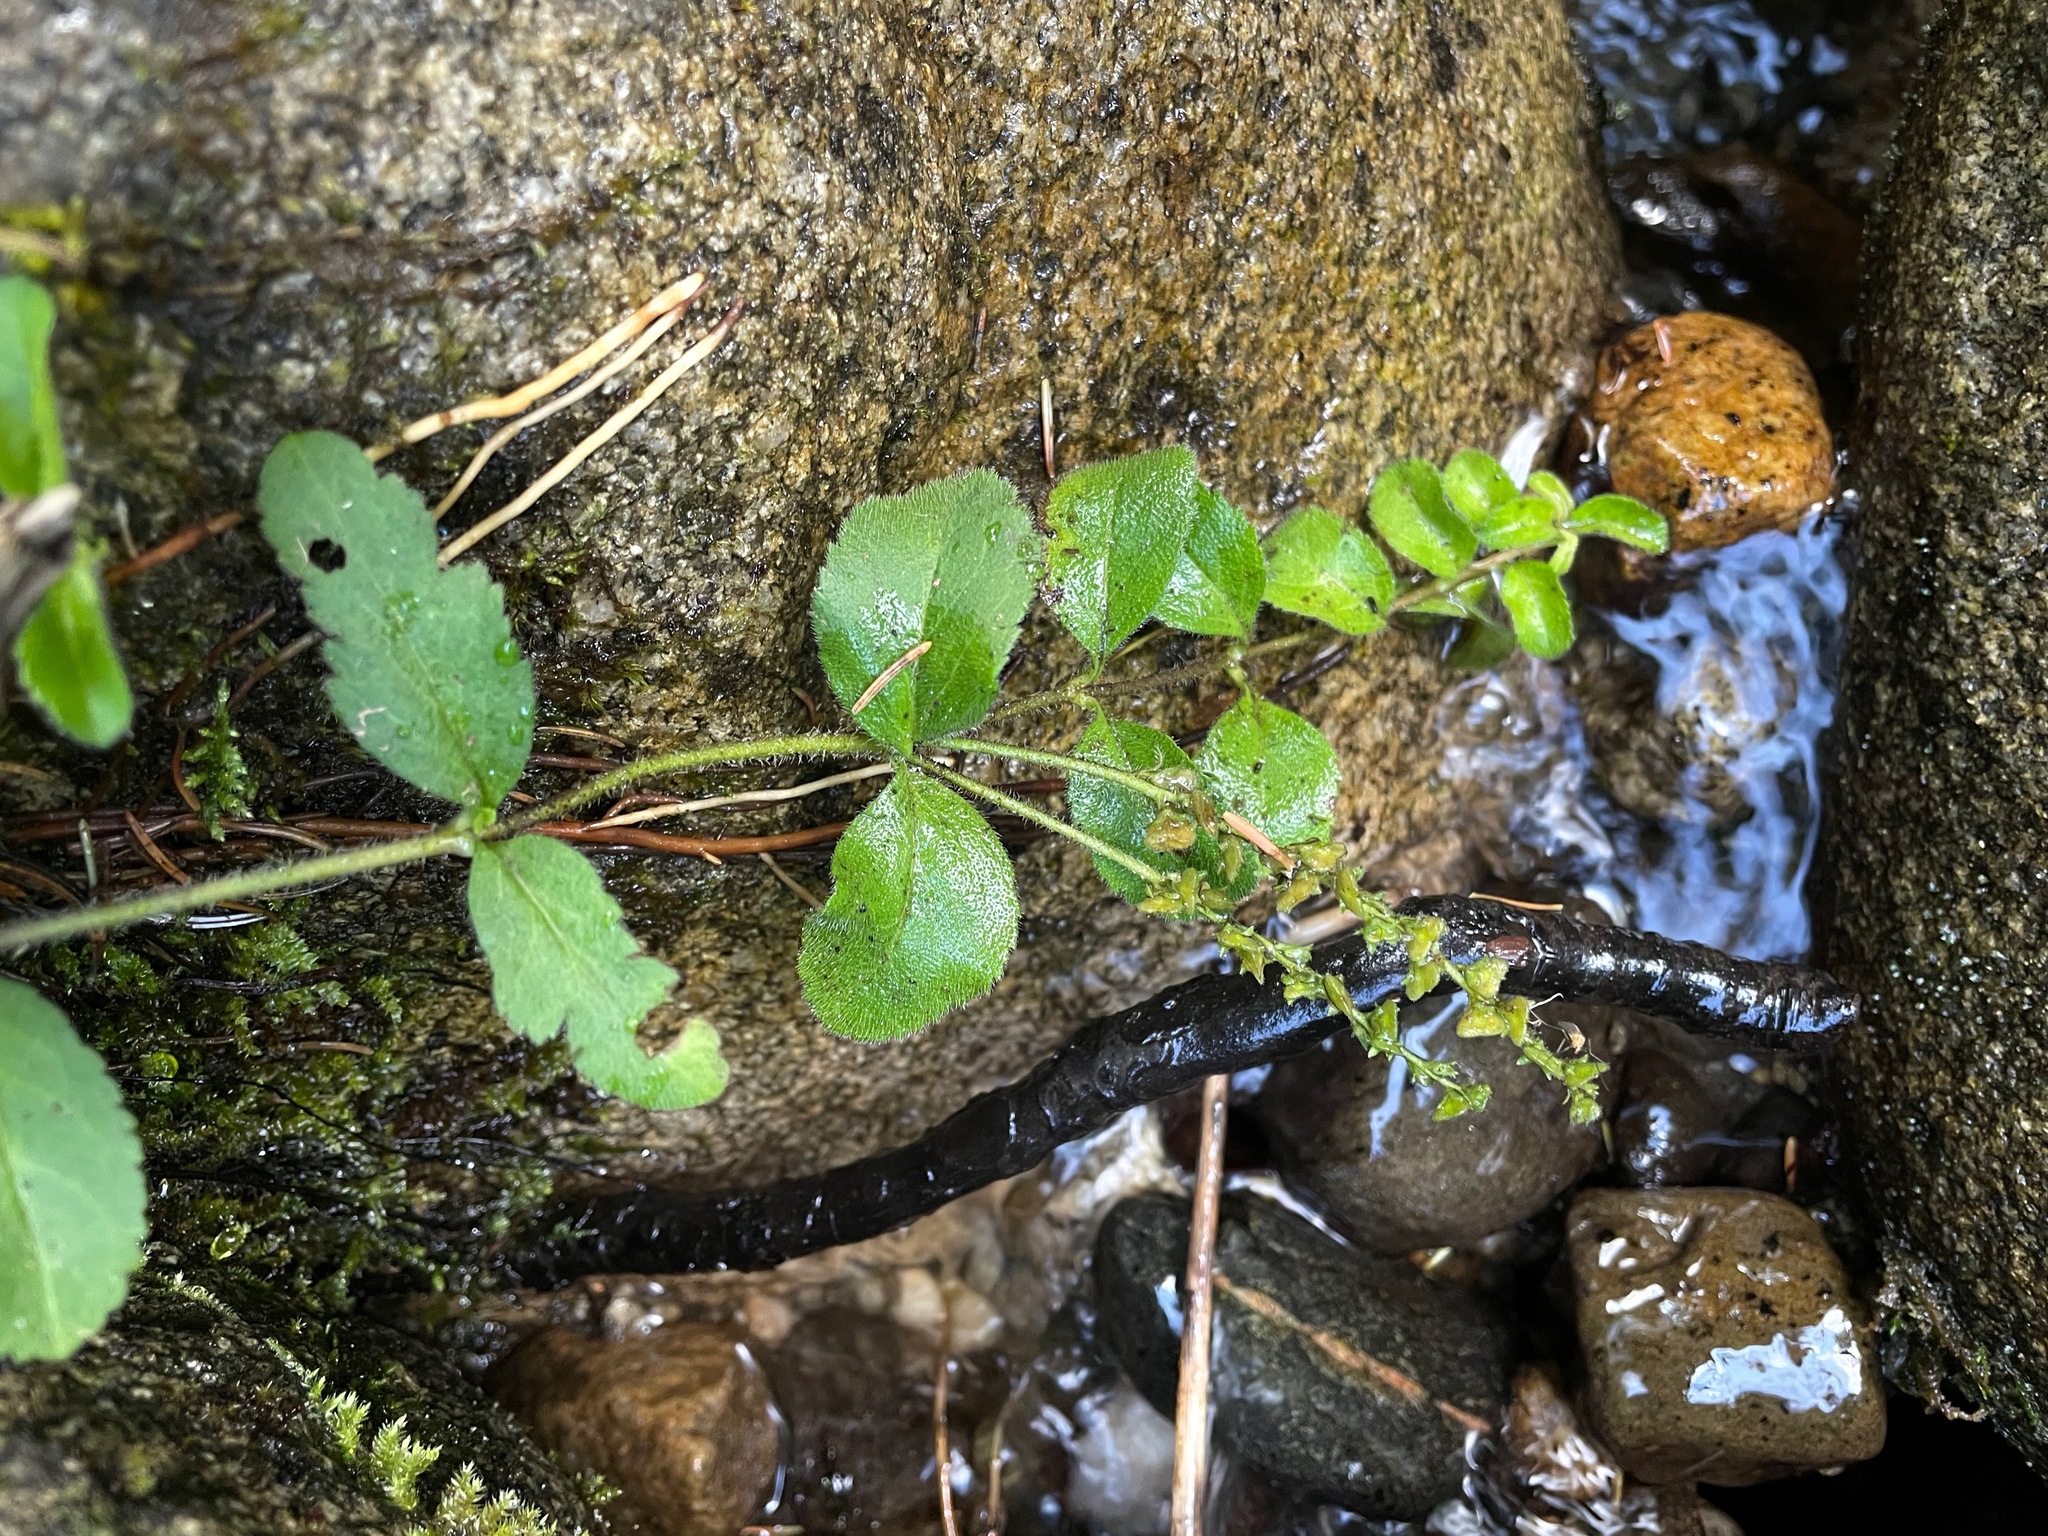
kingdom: Plantae
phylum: Tracheophyta
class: Magnoliopsida
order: Lamiales
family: Plantaginaceae
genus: Veronica
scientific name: Veronica officinalis
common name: Common speedwell
